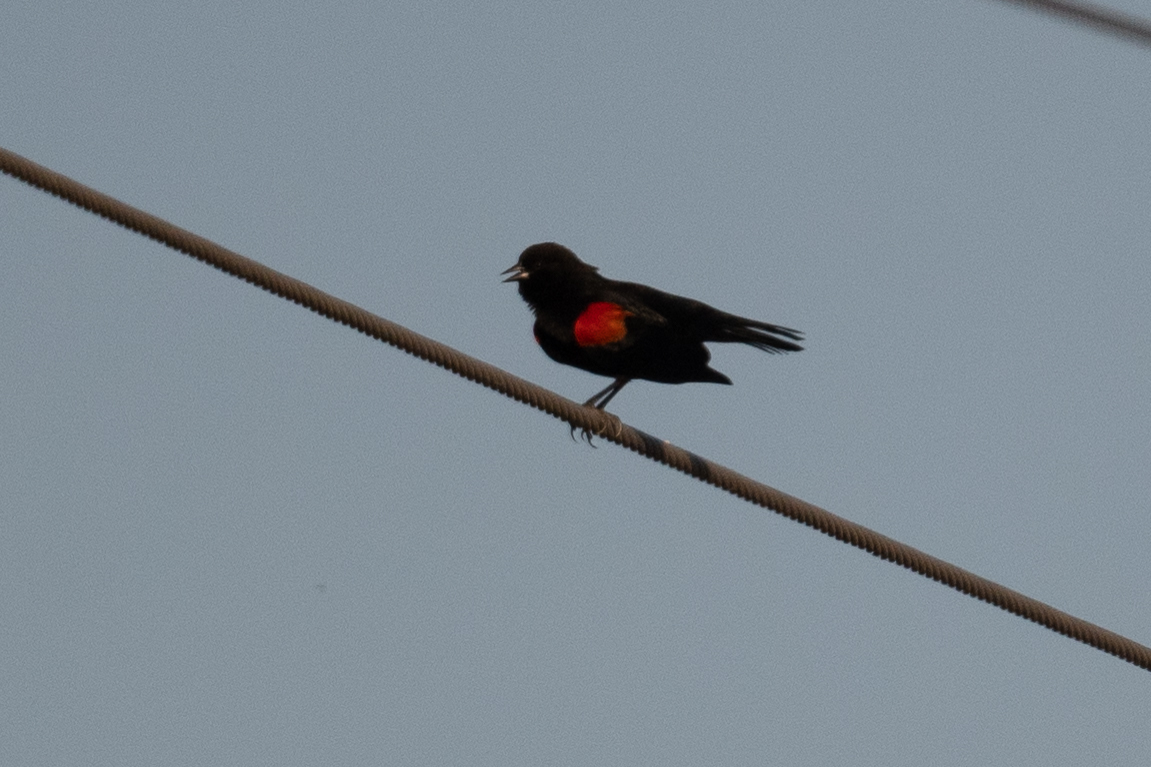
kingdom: Animalia
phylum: Chordata
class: Aves
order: Passeriformes
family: Icteridae
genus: Agelaius
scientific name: Agelaius phoeniceus
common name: Red-winged blackbird
